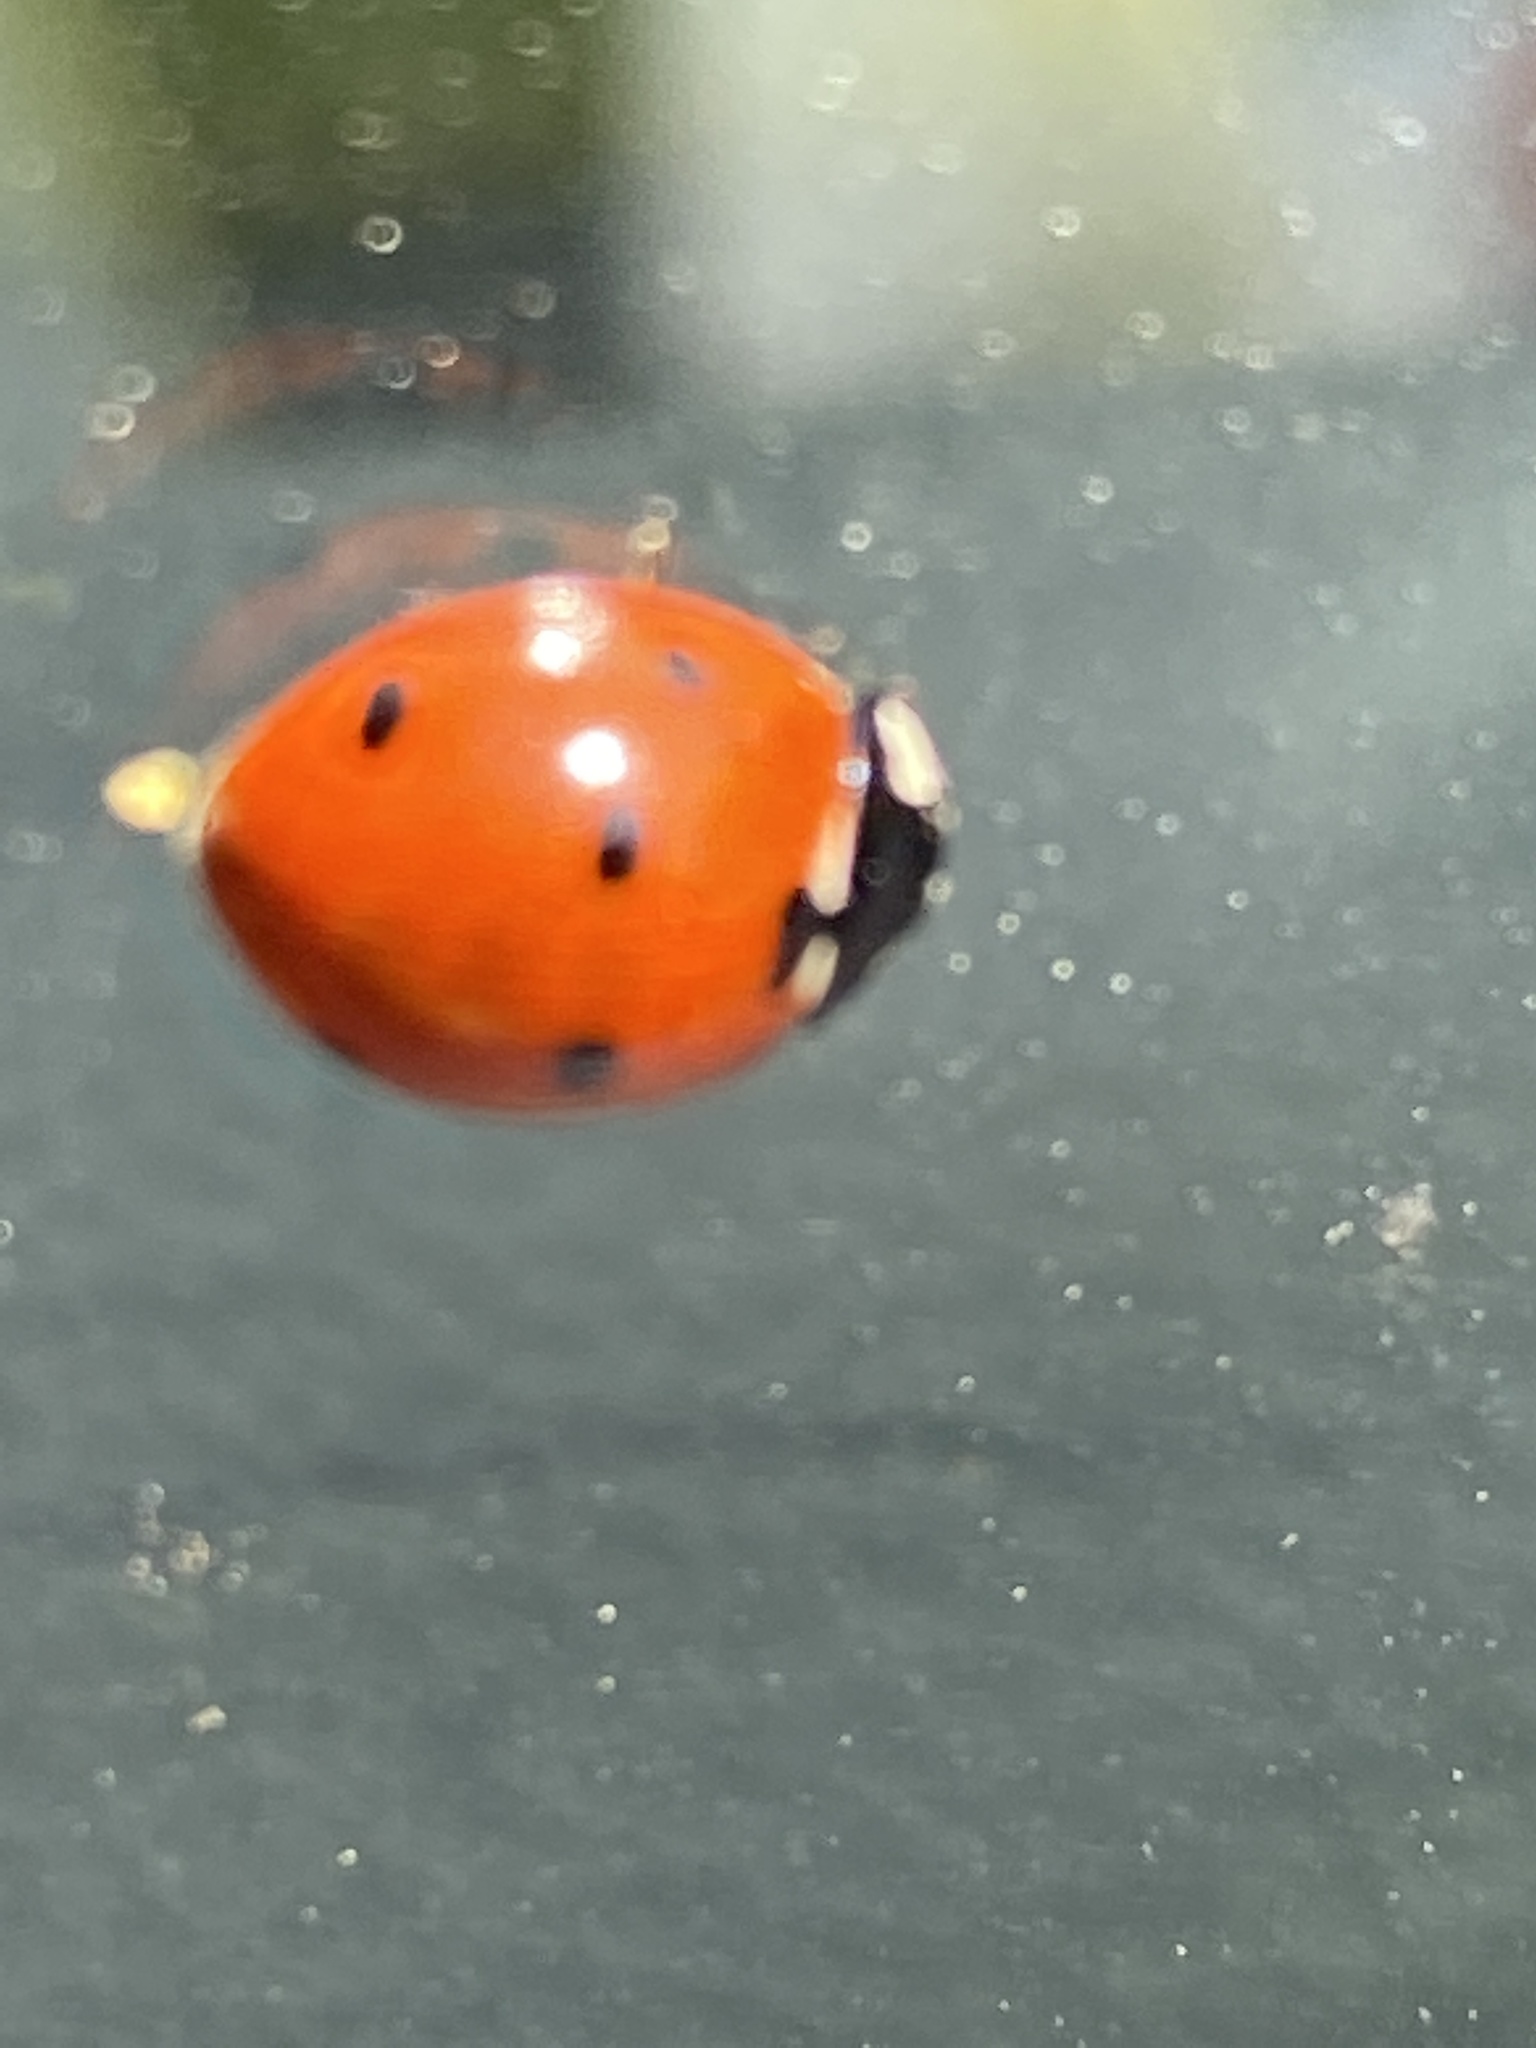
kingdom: Animalia
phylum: Arthropoda
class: Insecta
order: Coleoptera
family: Coccinellidae
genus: Coccinella
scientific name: Coccinella septempunctata
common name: Sevenspotted lady beetle
